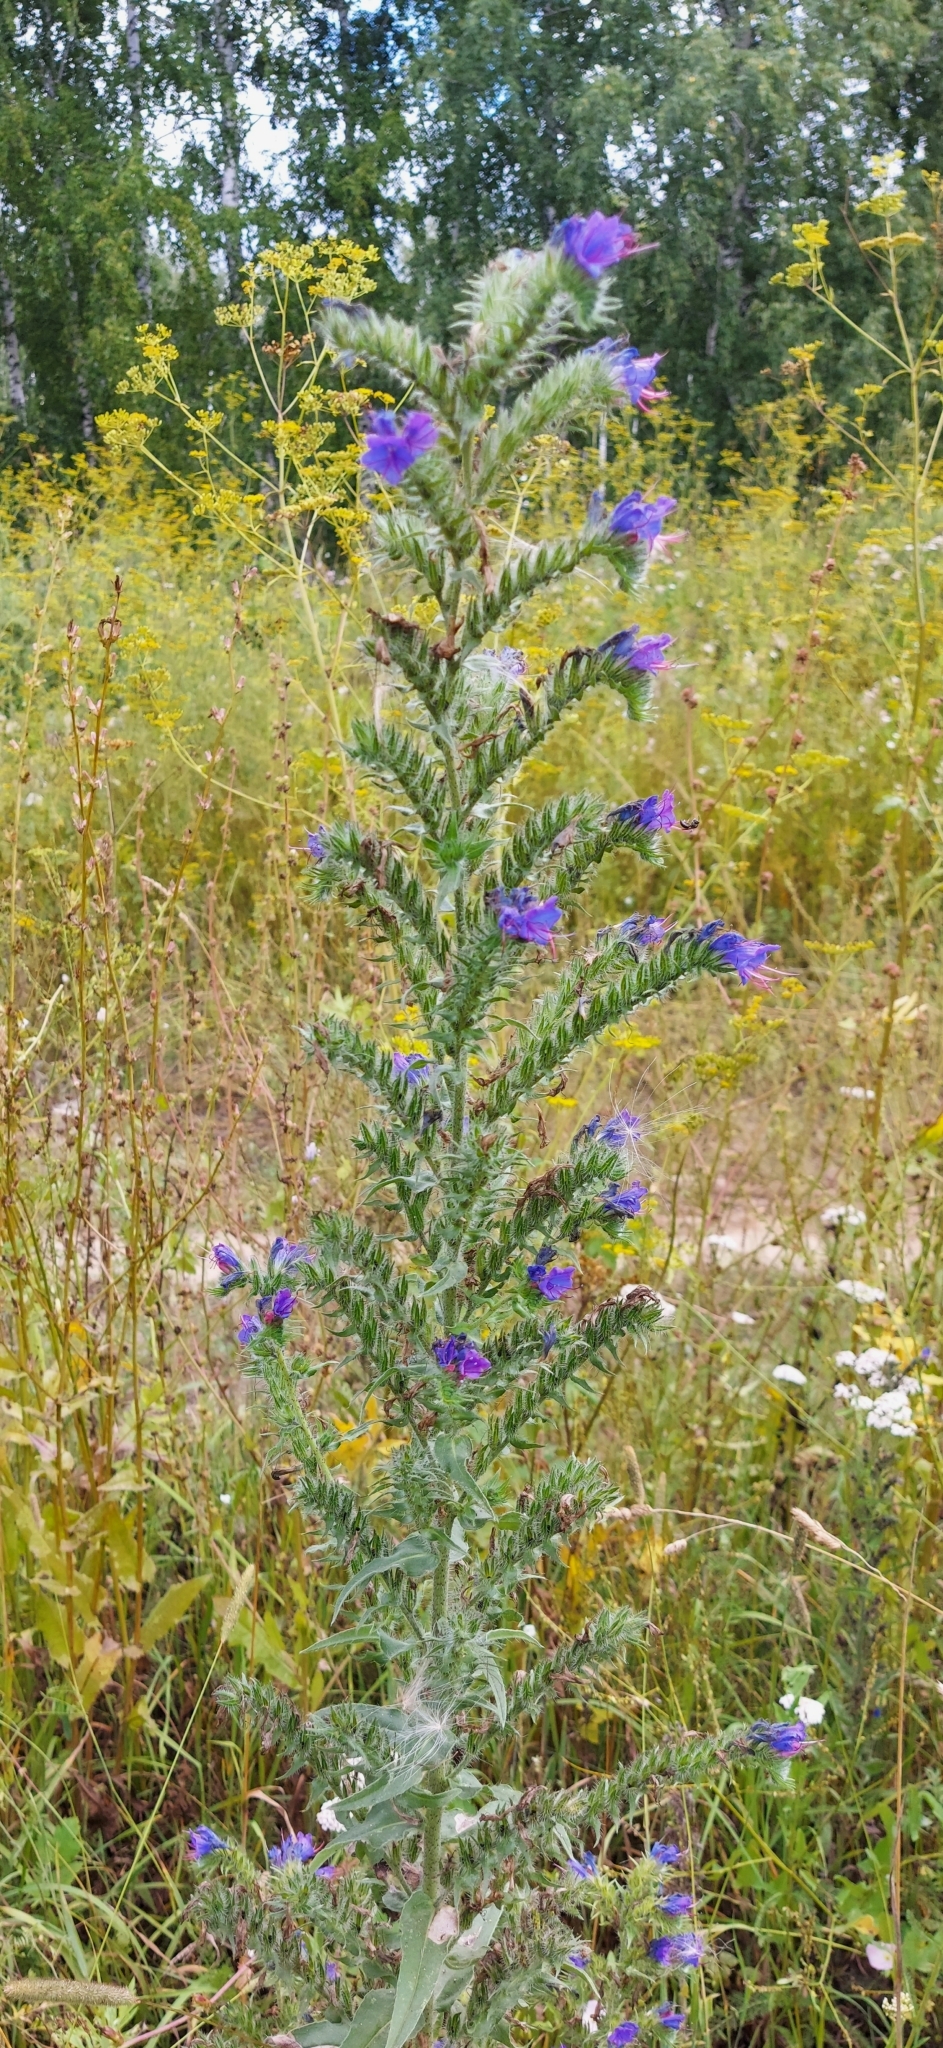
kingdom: Plantae
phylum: Tracheophyta
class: Magnoliopsida
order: Boraginales
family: Boraginaceae
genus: Echium
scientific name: Echium vulgare
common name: Common viper's bugloss
